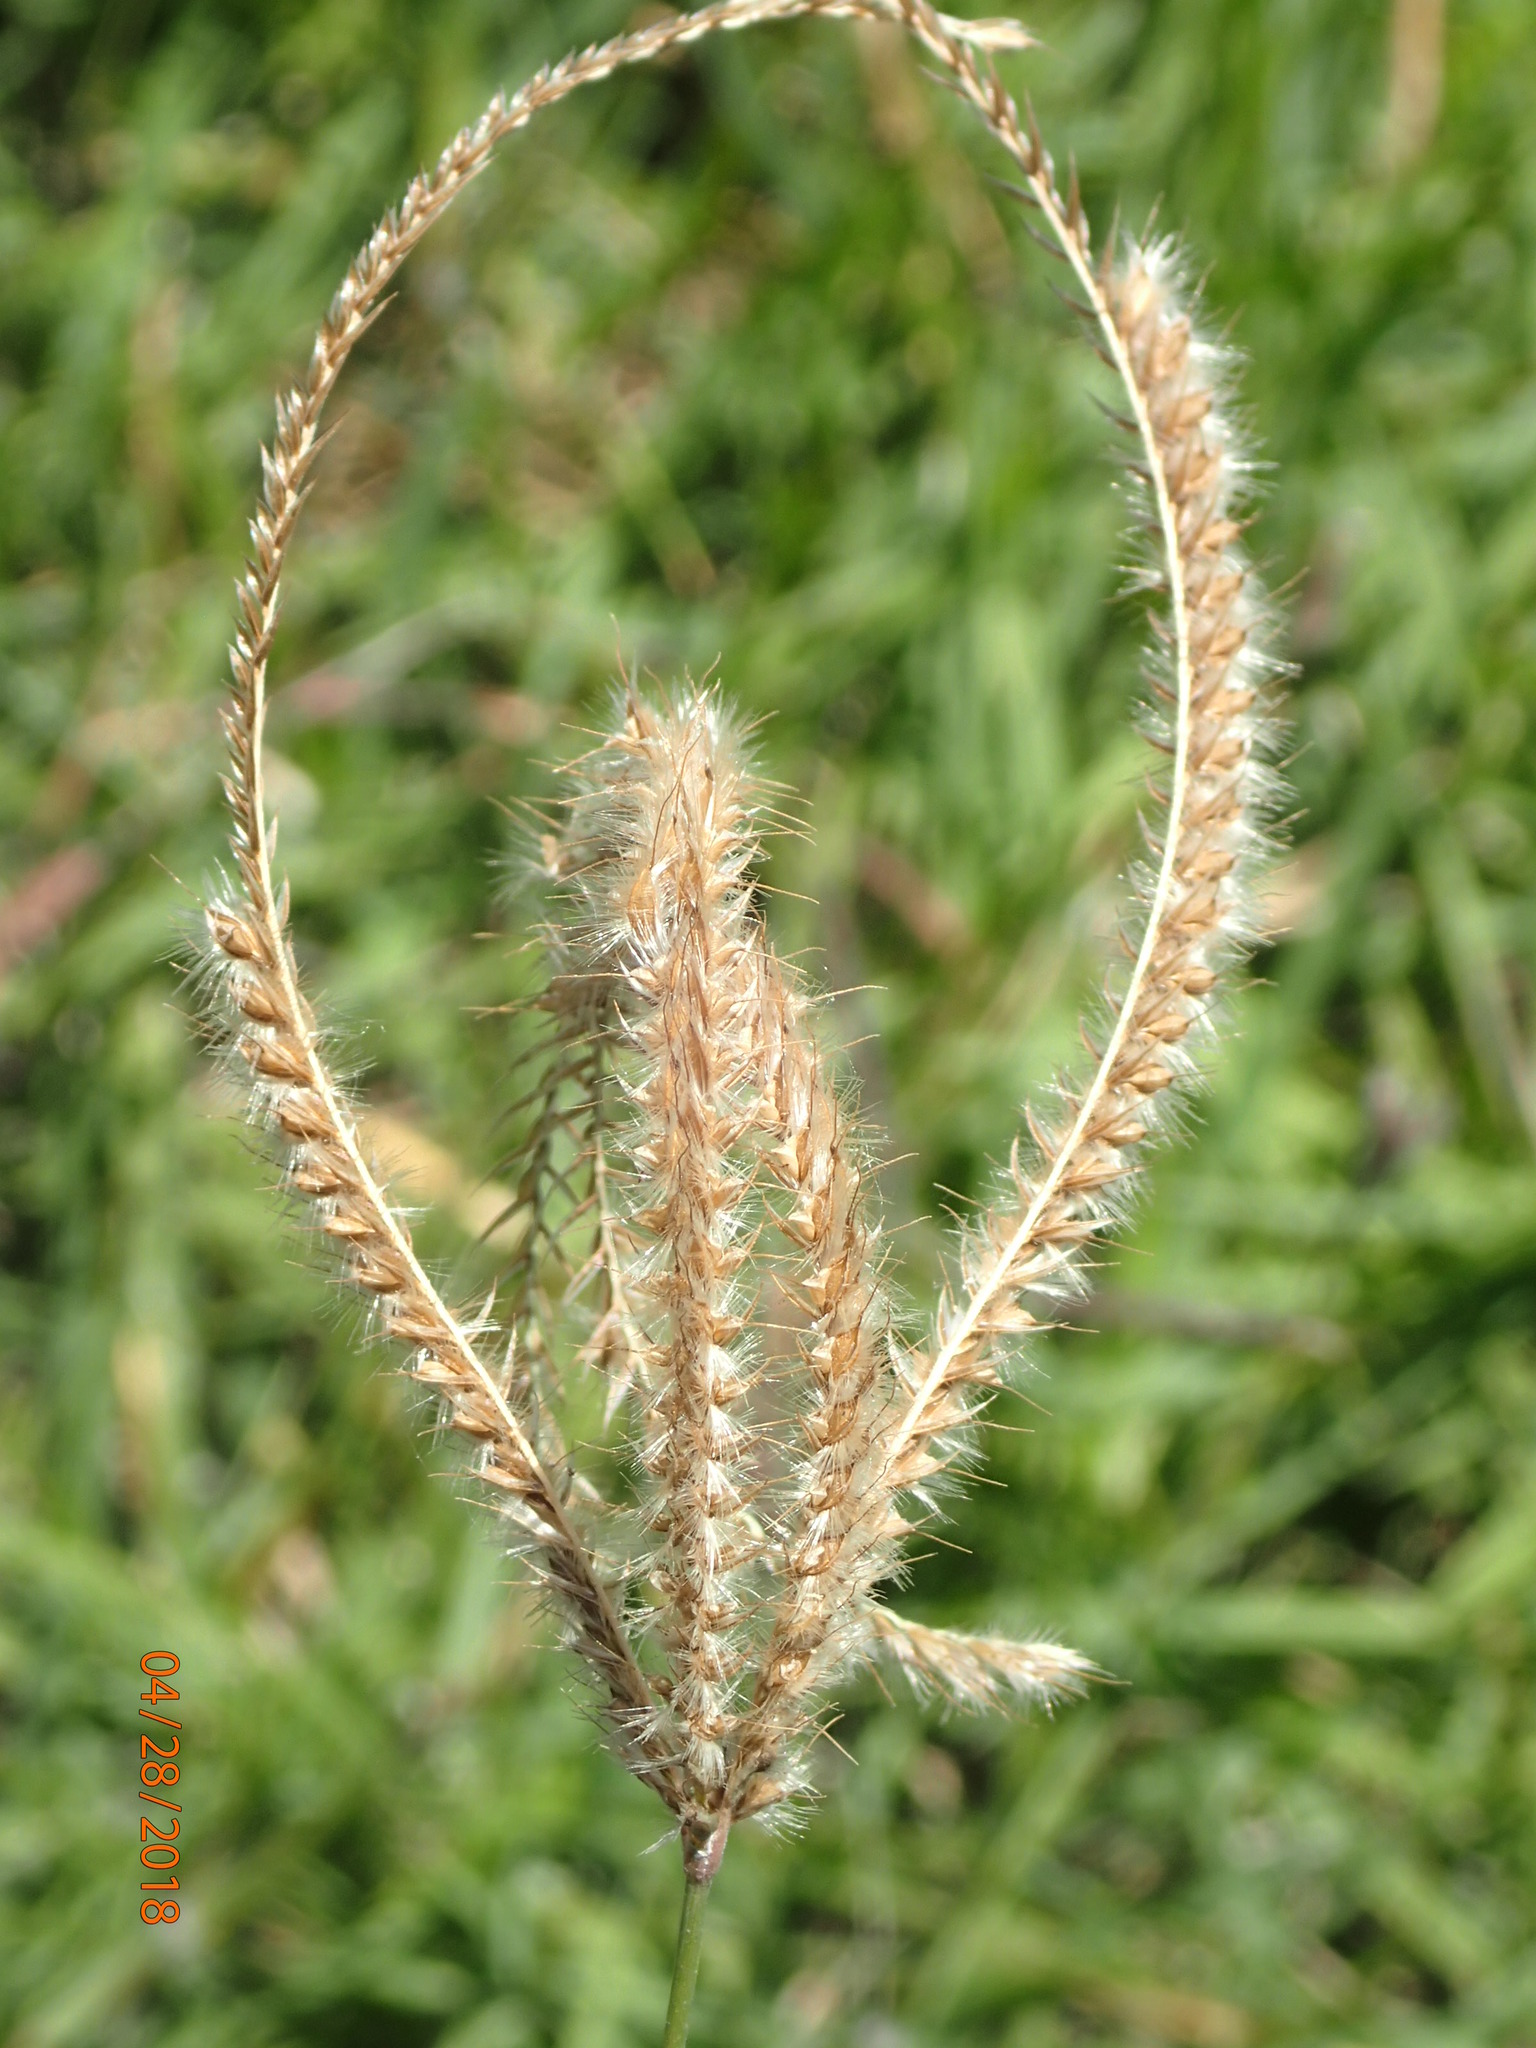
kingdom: Plantae
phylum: Tracheophyta
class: Liliopsida
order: Poales
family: Poaceae
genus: Stapfochloa
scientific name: Stapfochloa canterae
